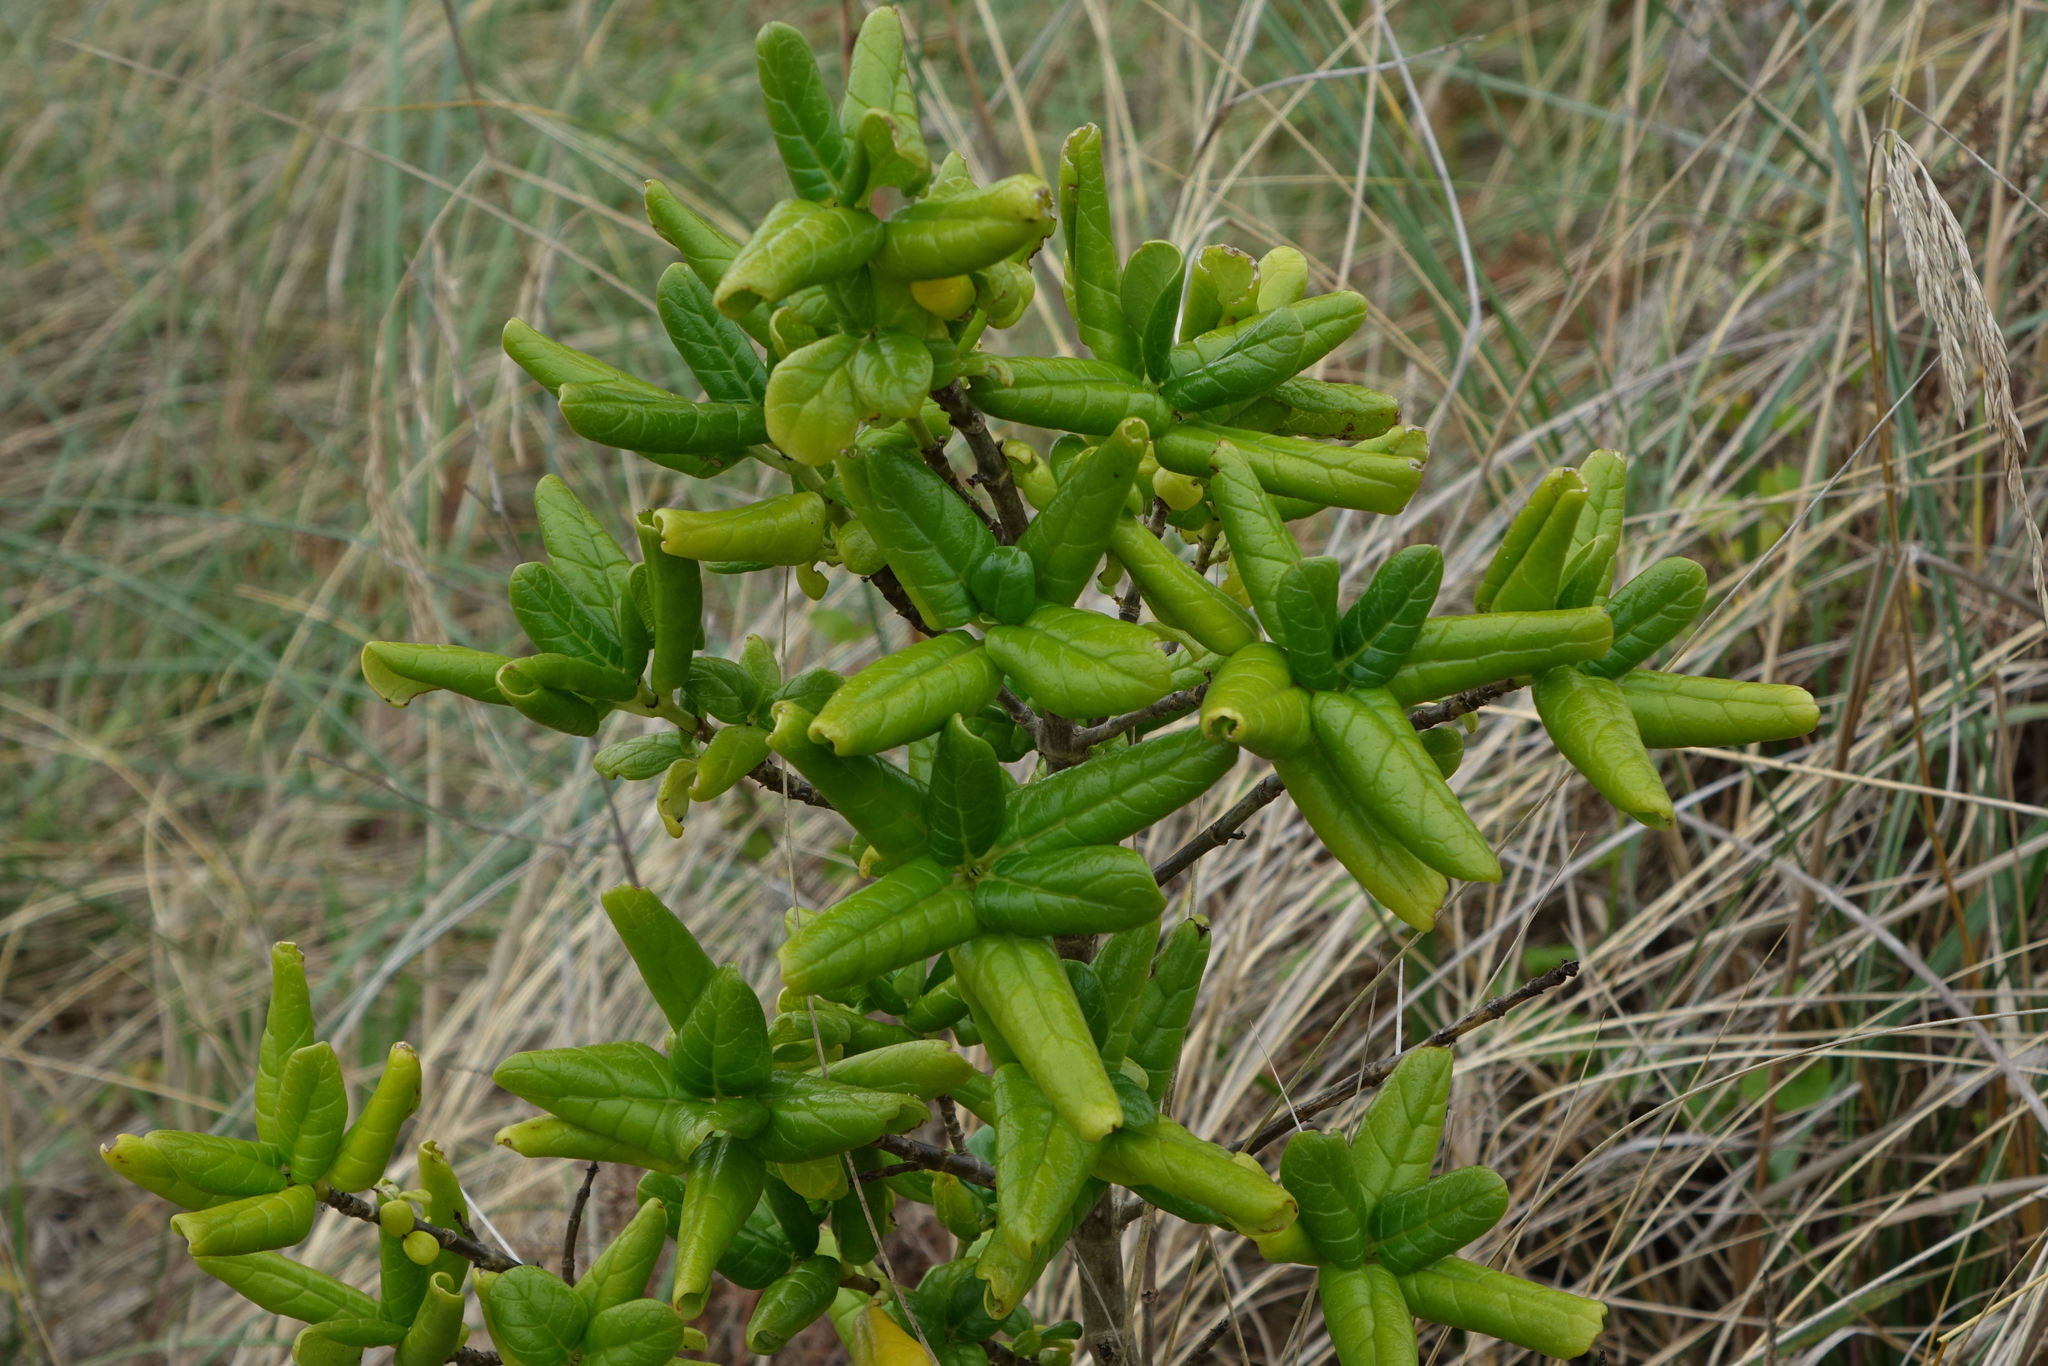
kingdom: Plantae
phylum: Tracheophyta
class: Magnoliopsida
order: Gentianales
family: Rubiaceae
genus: Coprosma
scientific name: Coprosma repens
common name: Tree bedstraw
